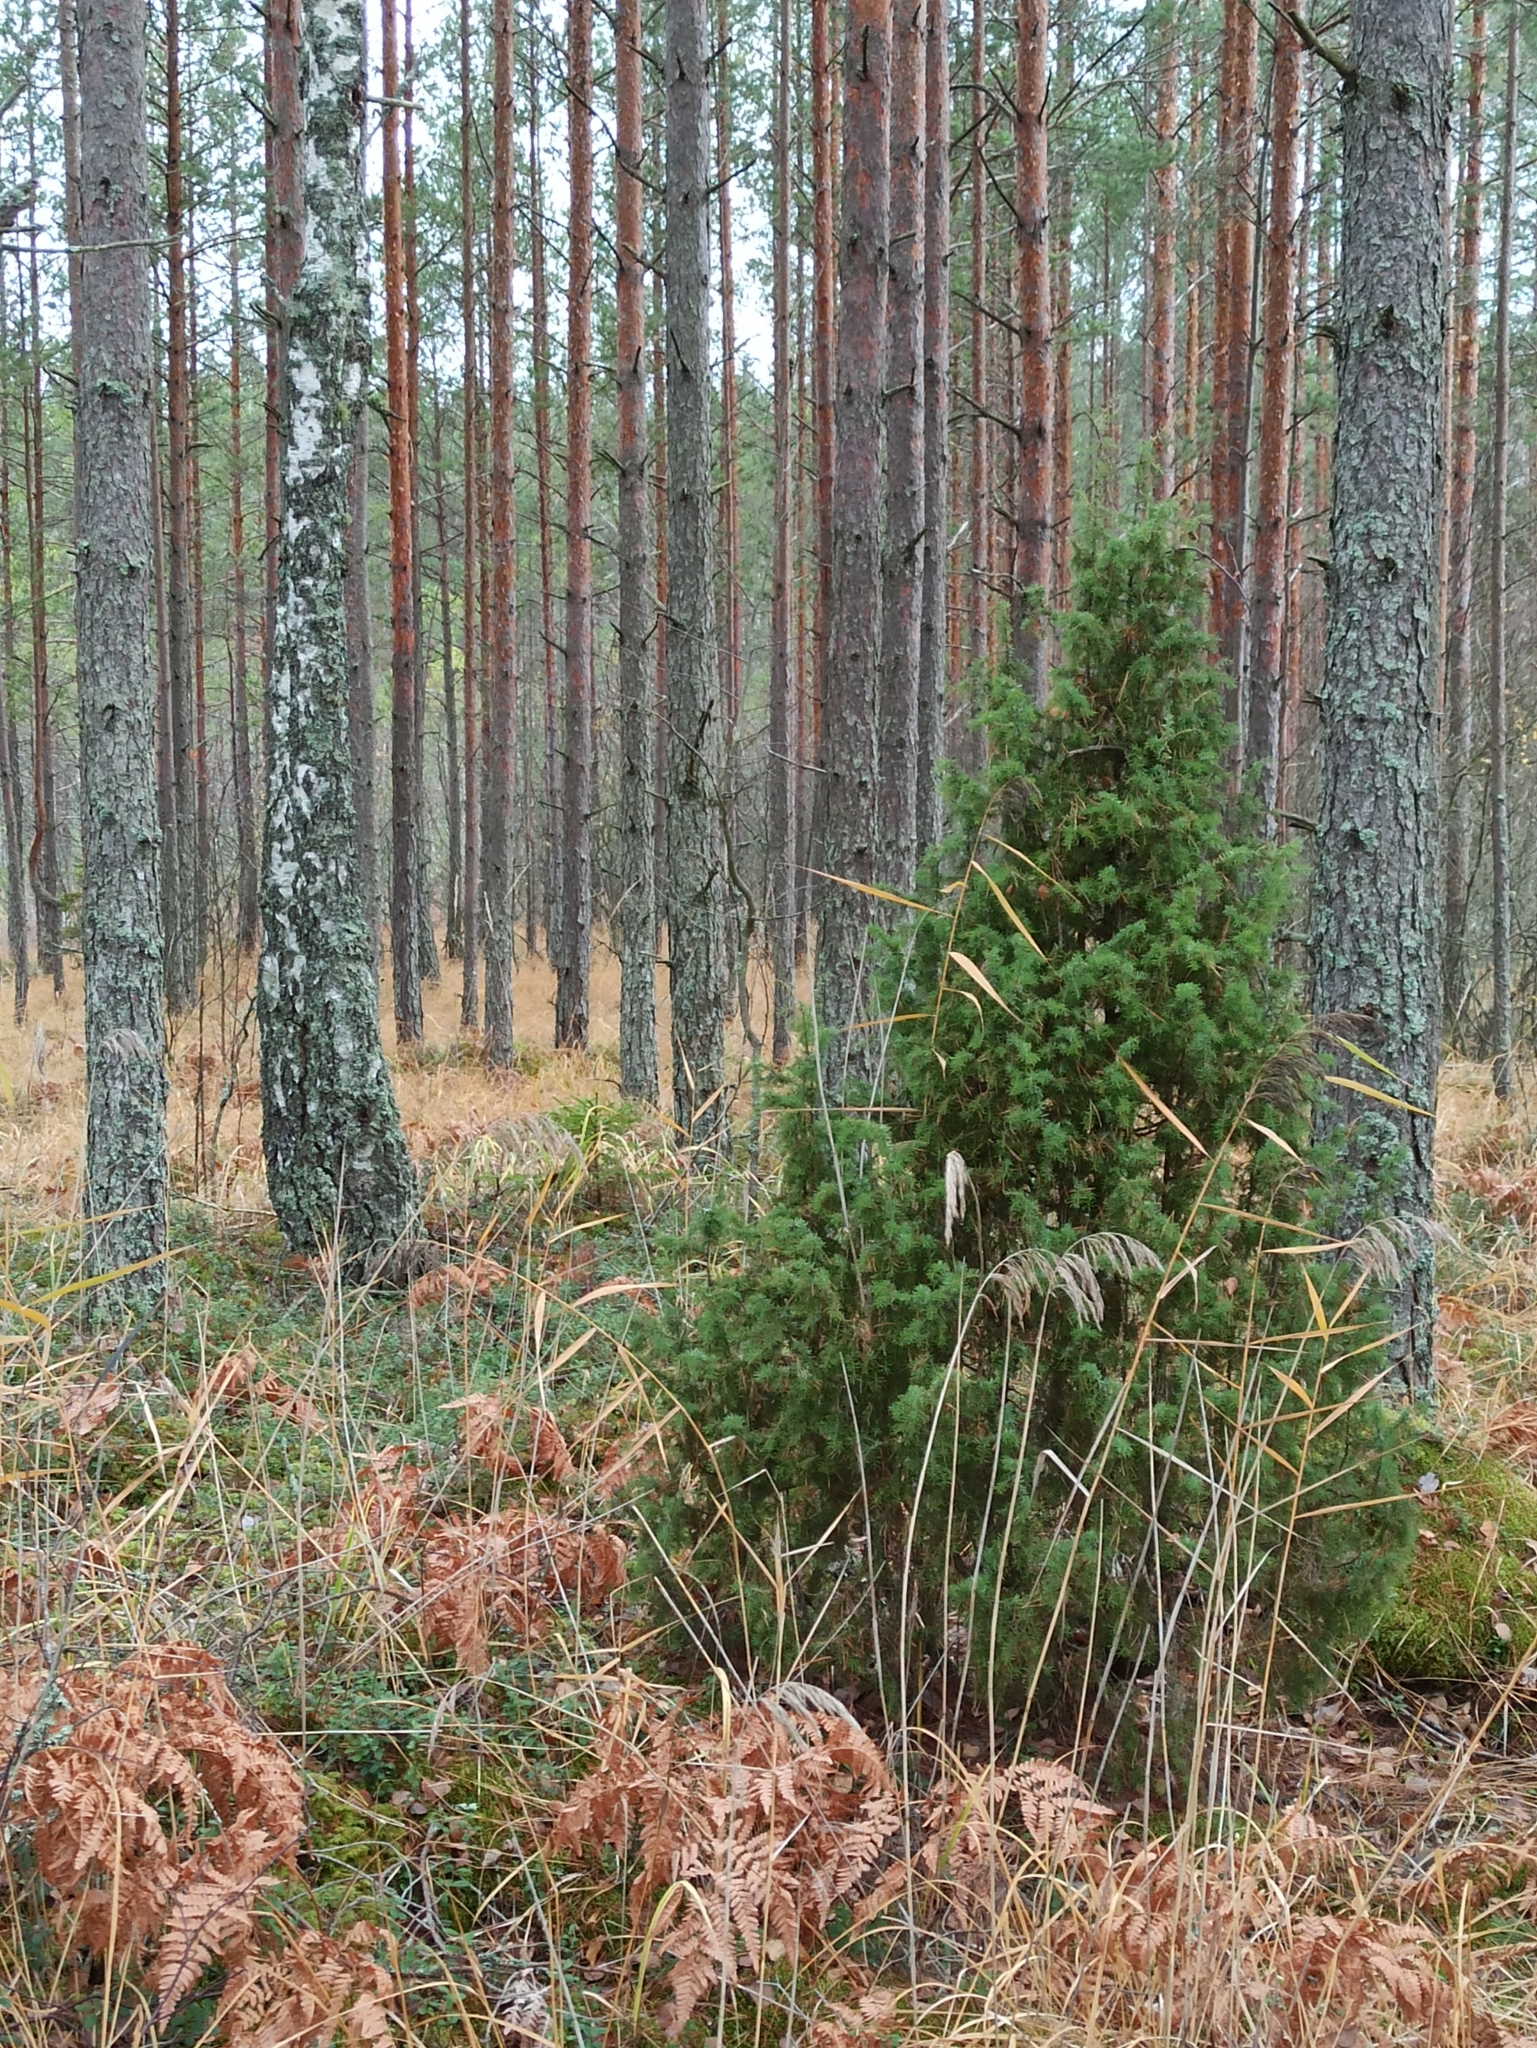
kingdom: Plantae
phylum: Tracheophyta
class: Pinopsida
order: Pinales
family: Cupressaceae
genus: Juniperus
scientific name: Juniperus communis
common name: Common juniper
